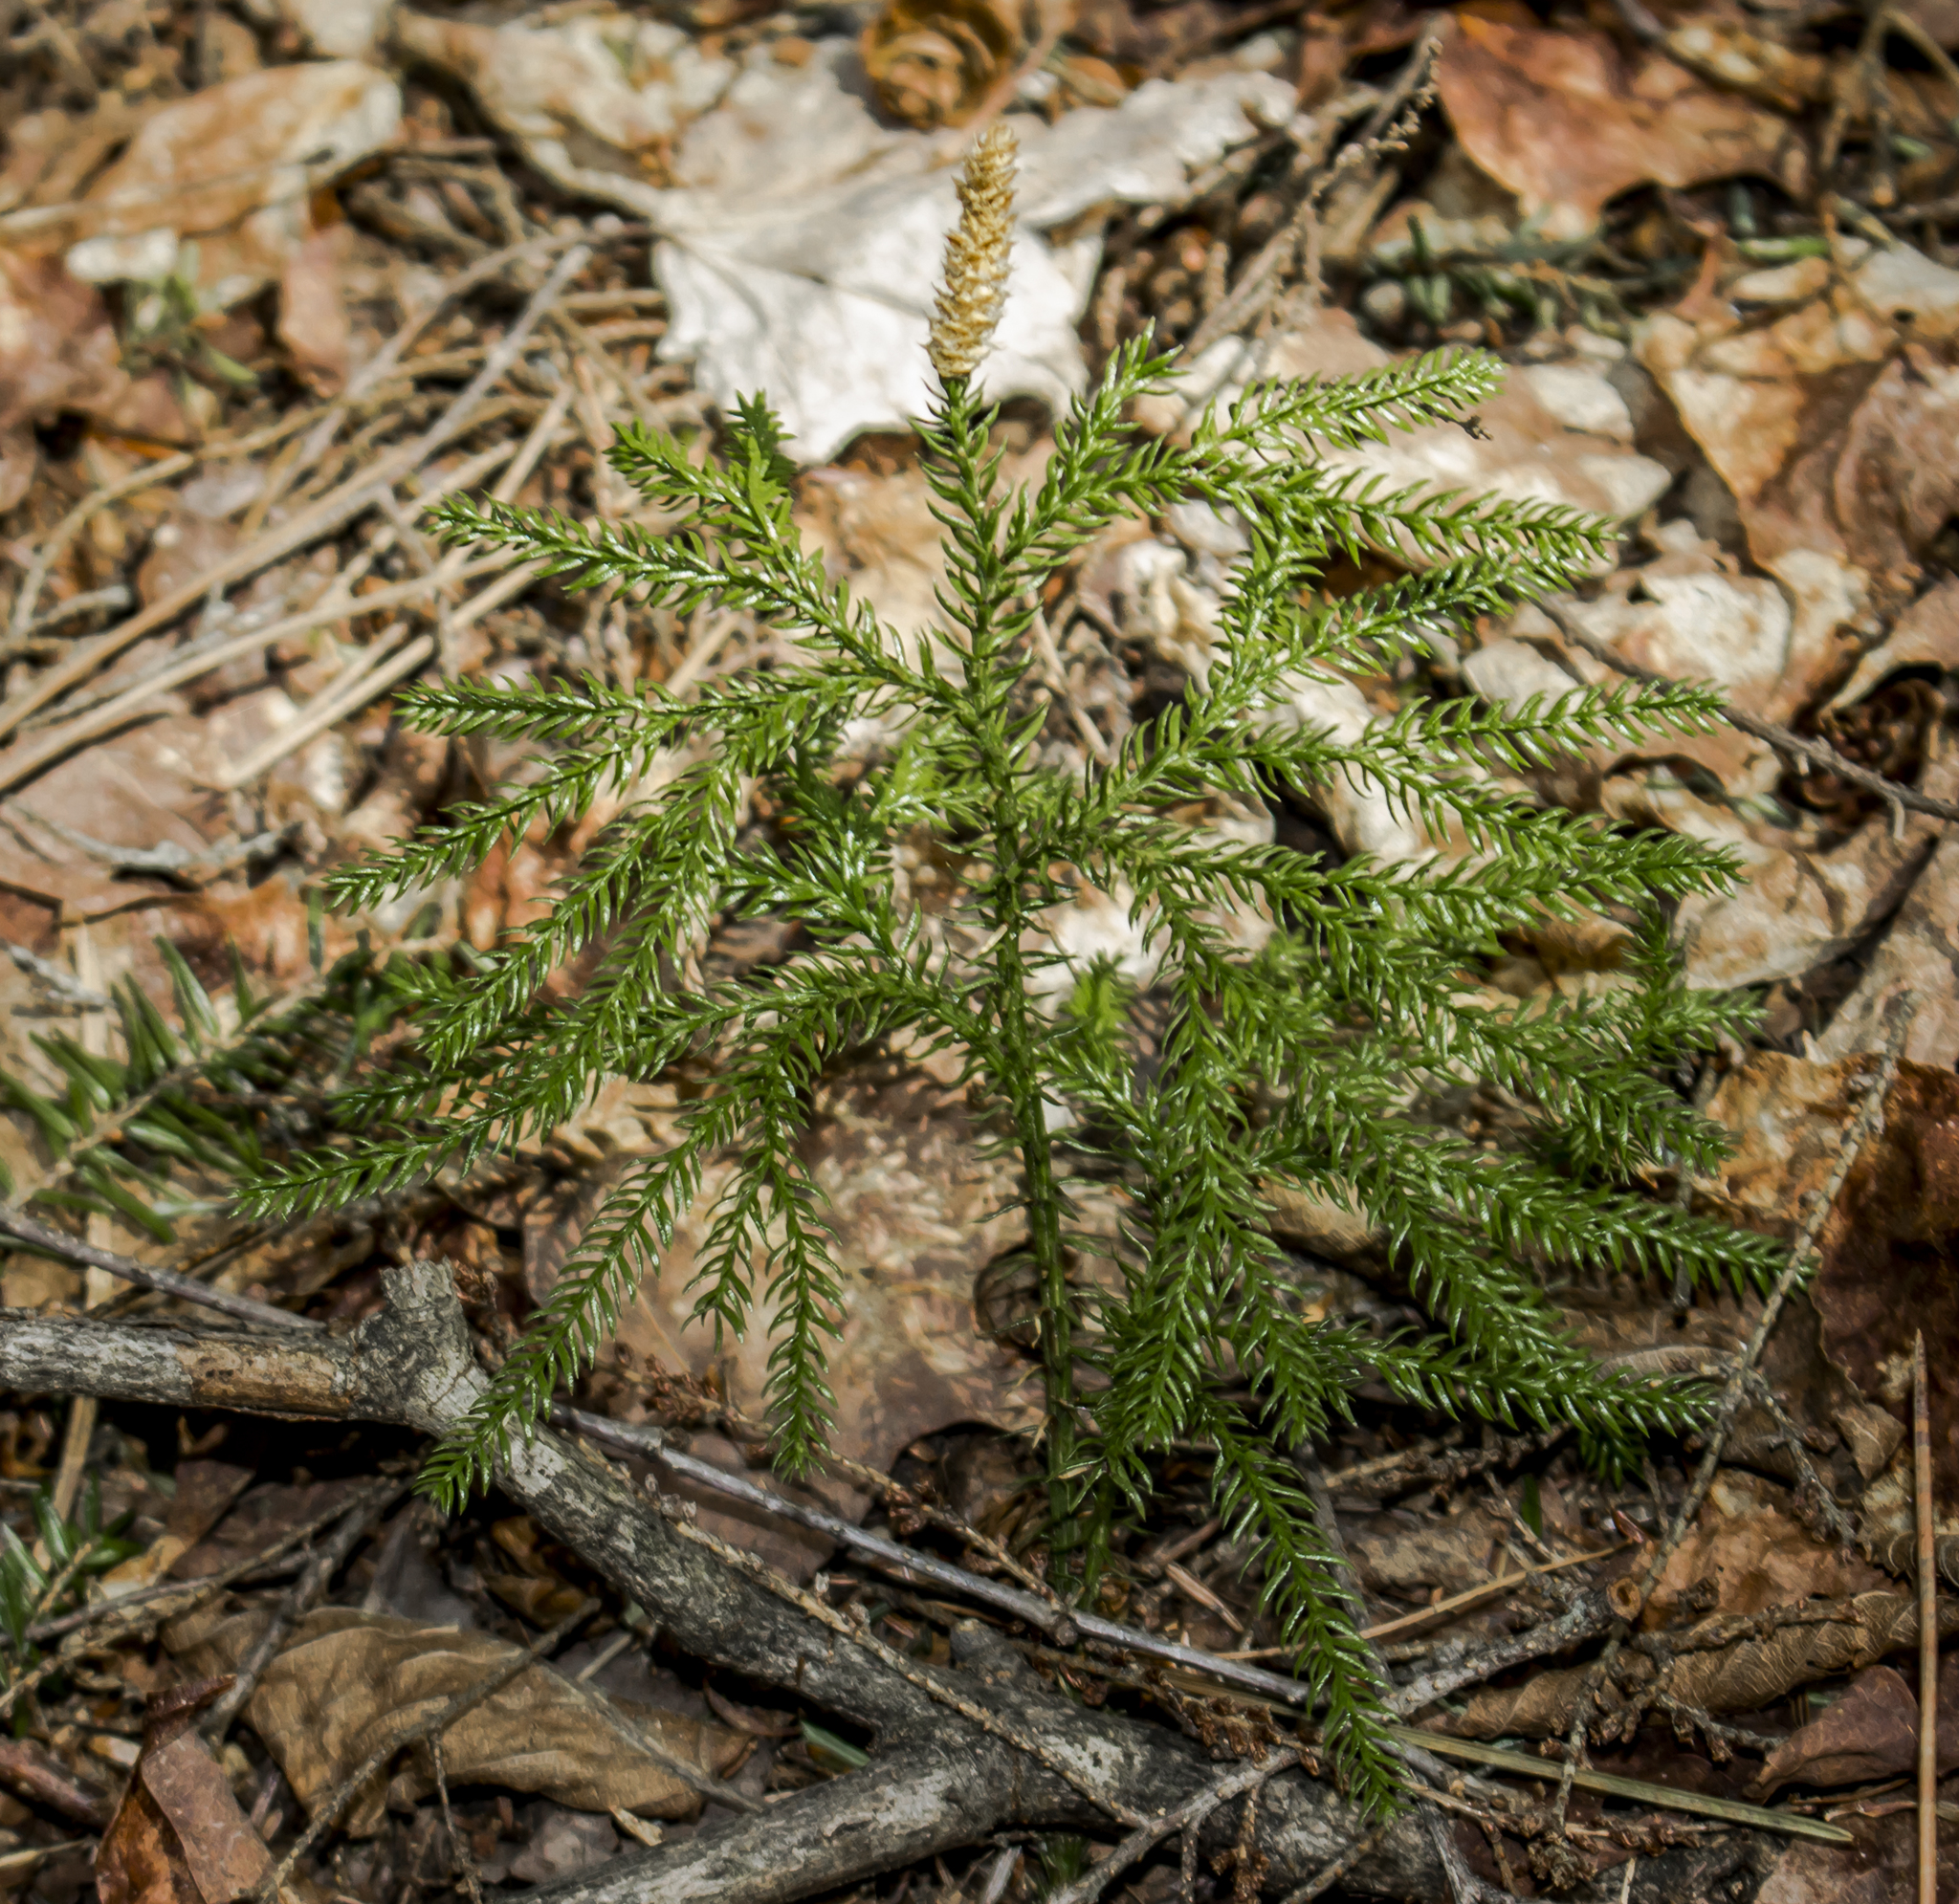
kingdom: Plantae
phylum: Tracheophyta
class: Lycopodiopsida
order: Lycopodiales
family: Lycopodiaceae
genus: Dendrolycopodium
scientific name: Dendrolycopodium dendroideum
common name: Northern tree-clubmoss
